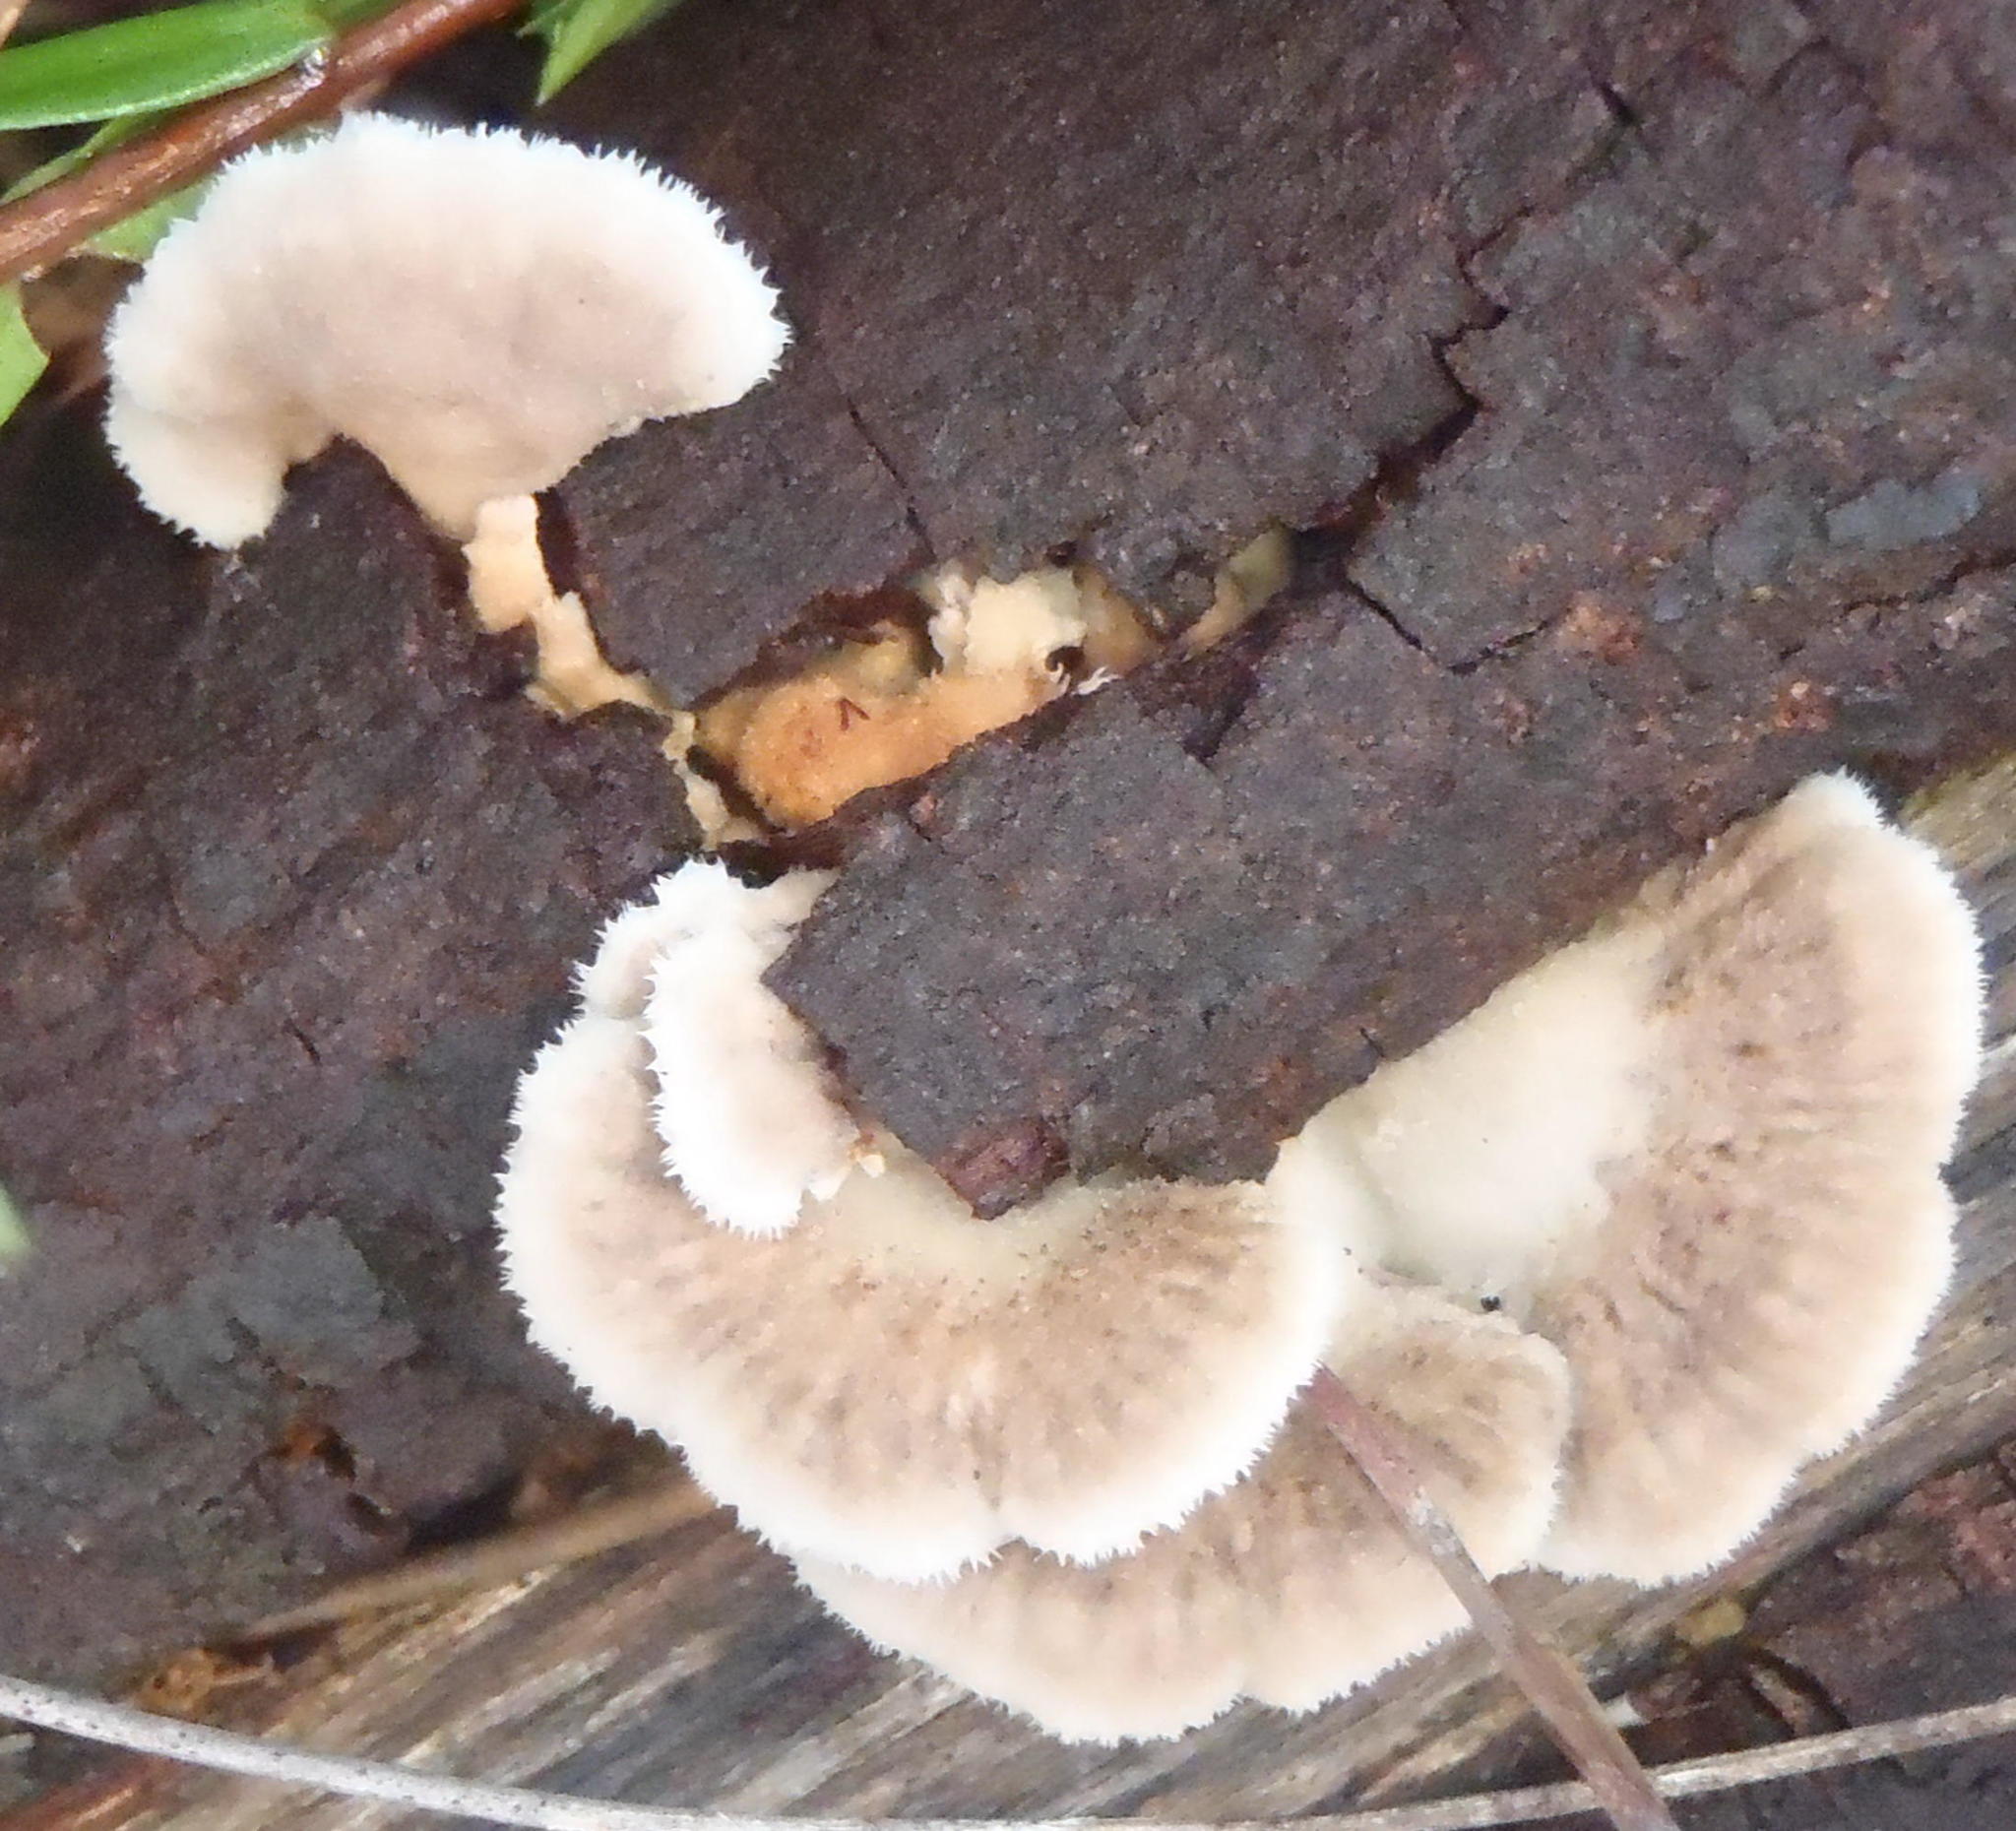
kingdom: Fungi
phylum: Basidiomycota
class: Agaricomycetes
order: Agaricales
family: Schizophyllaceae
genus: Schizophyllum
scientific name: Schizophyllum commune
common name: Common porecrust
